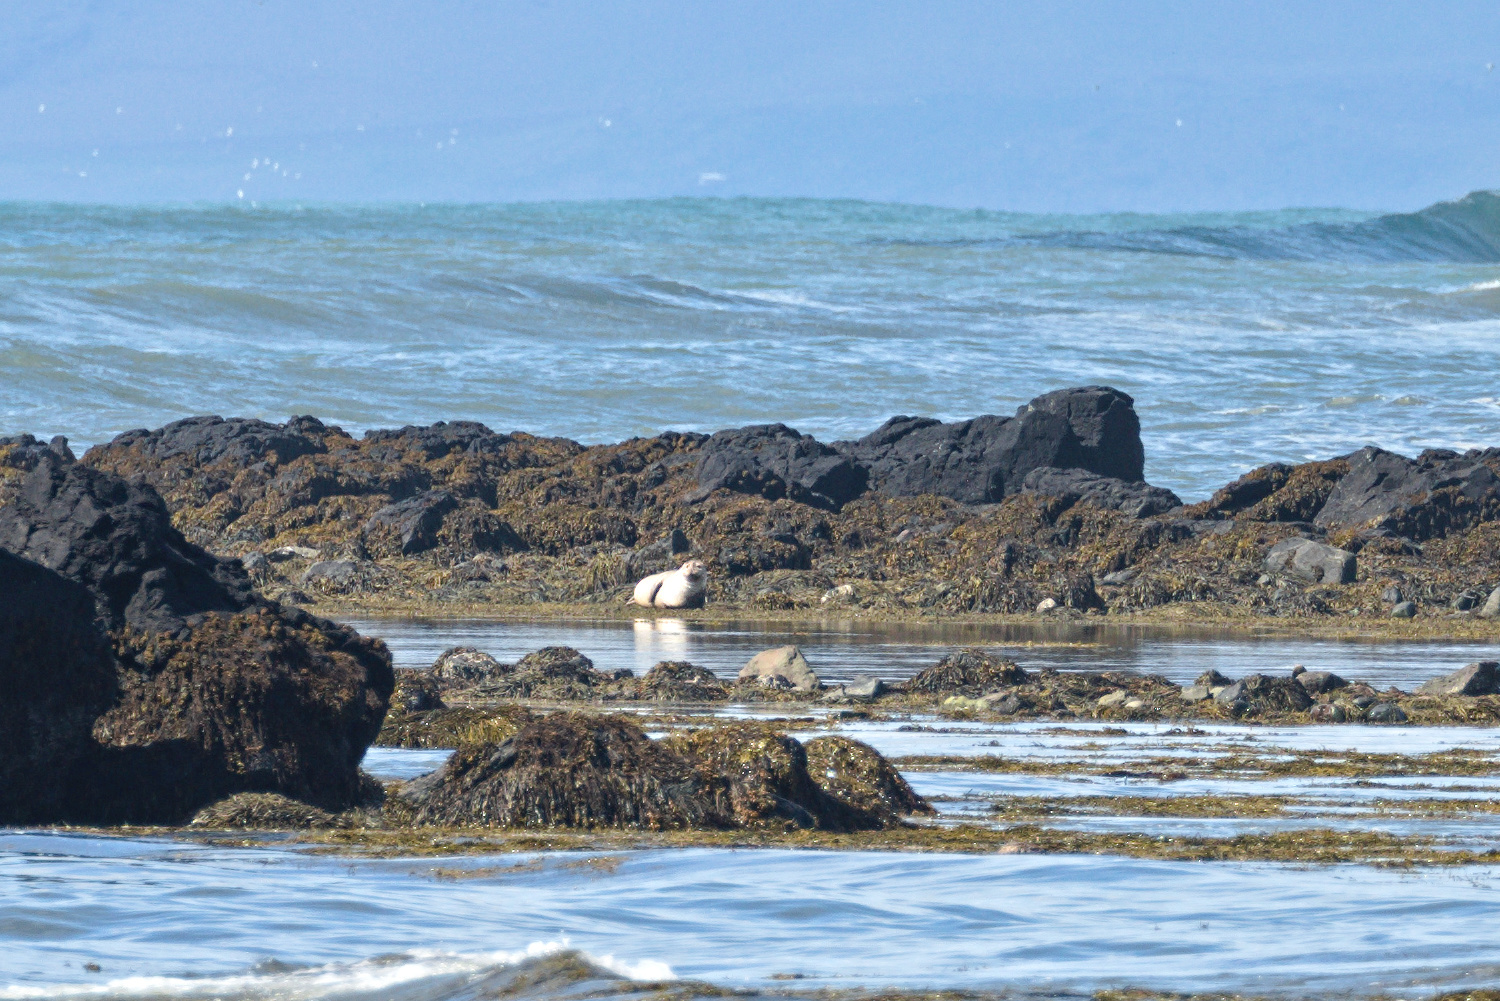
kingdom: Animalia
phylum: Chordata
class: Mammalia
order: Carnivora
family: Phocidae
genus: Phoca
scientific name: Phoca vitulina
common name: Harbor seal
